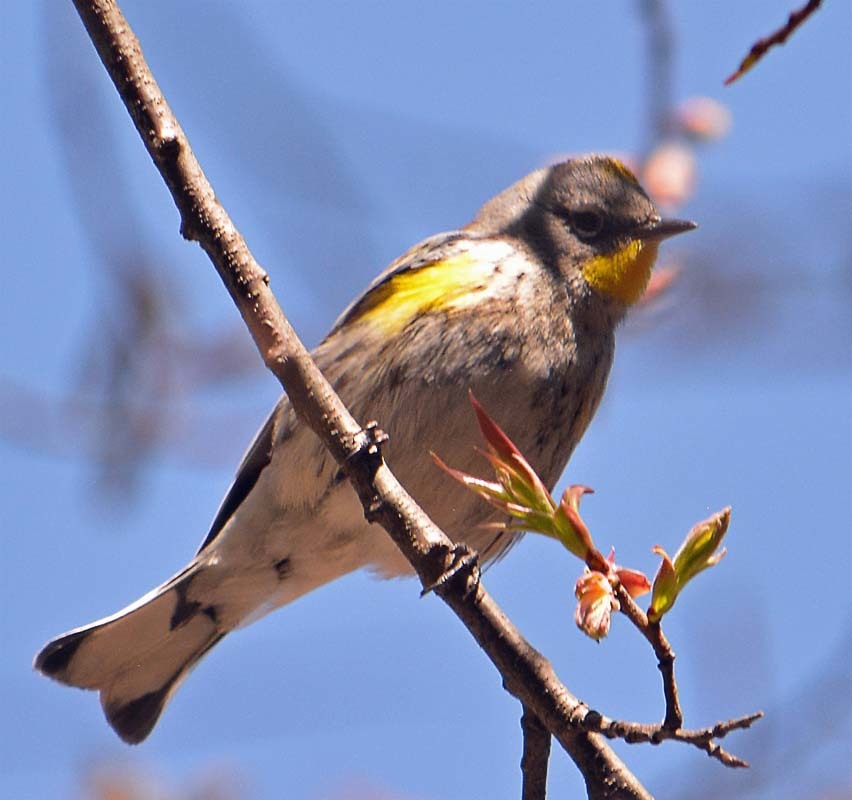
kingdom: Animalia
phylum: Chordata
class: Aves
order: Passeriformes
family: Parulidae
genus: Setophaga
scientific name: Setophaga coronata
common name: Myrtle warbler
